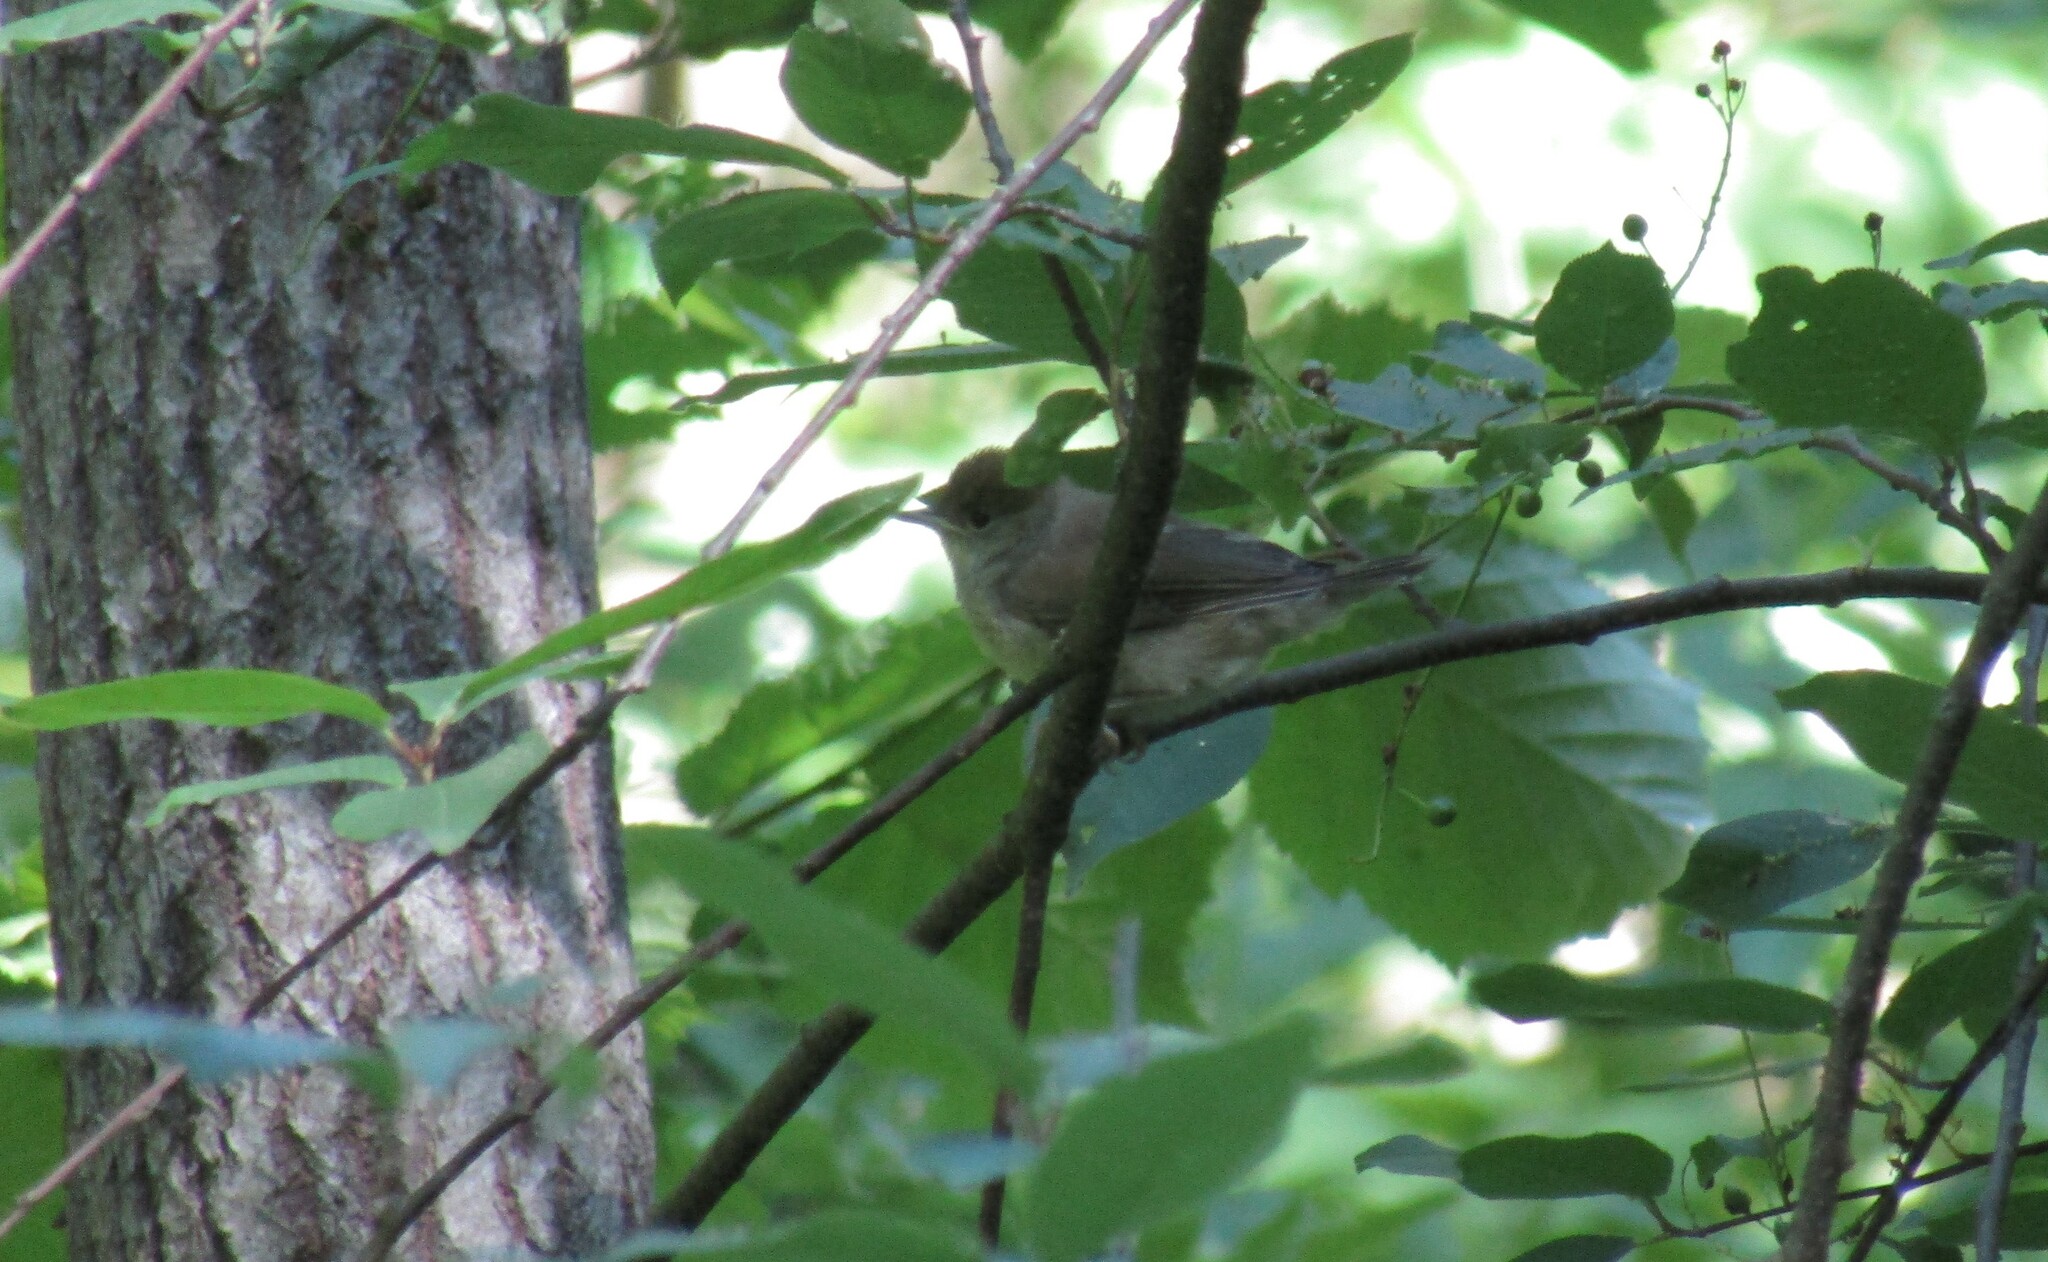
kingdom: Animalia
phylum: Chordata
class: Aves
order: Passeriformes
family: Sylviidae
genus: Sylvia
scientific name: Sylvia atricapilla
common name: Eurasian blackcap
